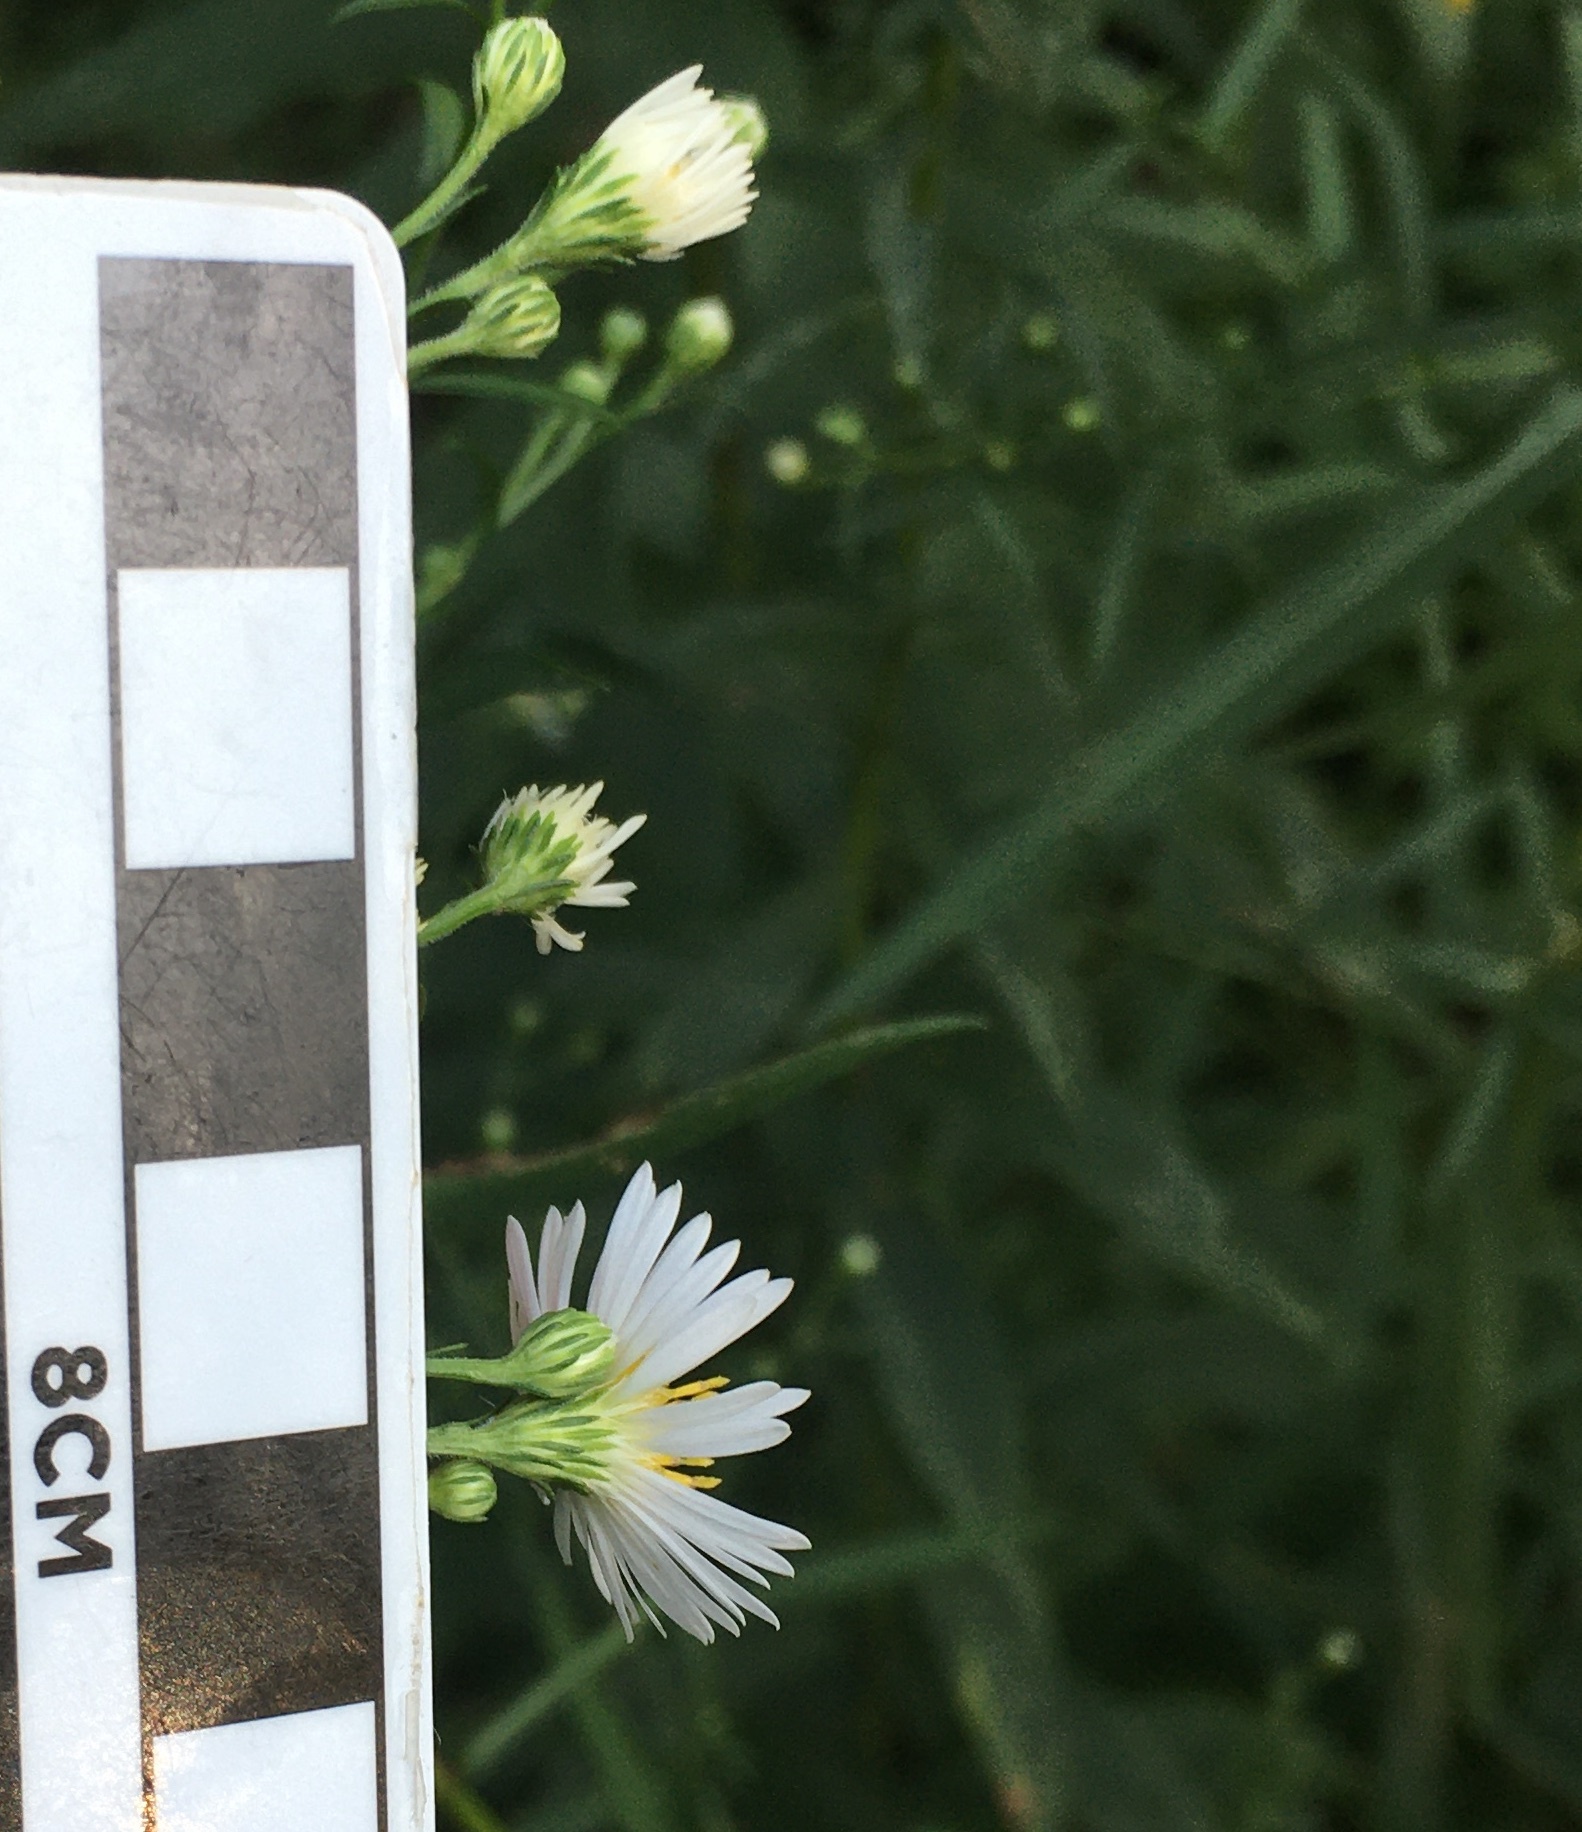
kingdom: Plantae
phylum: Tracheophyta
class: Magnoliopsida
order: Asterales
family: Asteraceae
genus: Symphyotrichum
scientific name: Symphyotrichum lanceolatum
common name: Panicled aster
